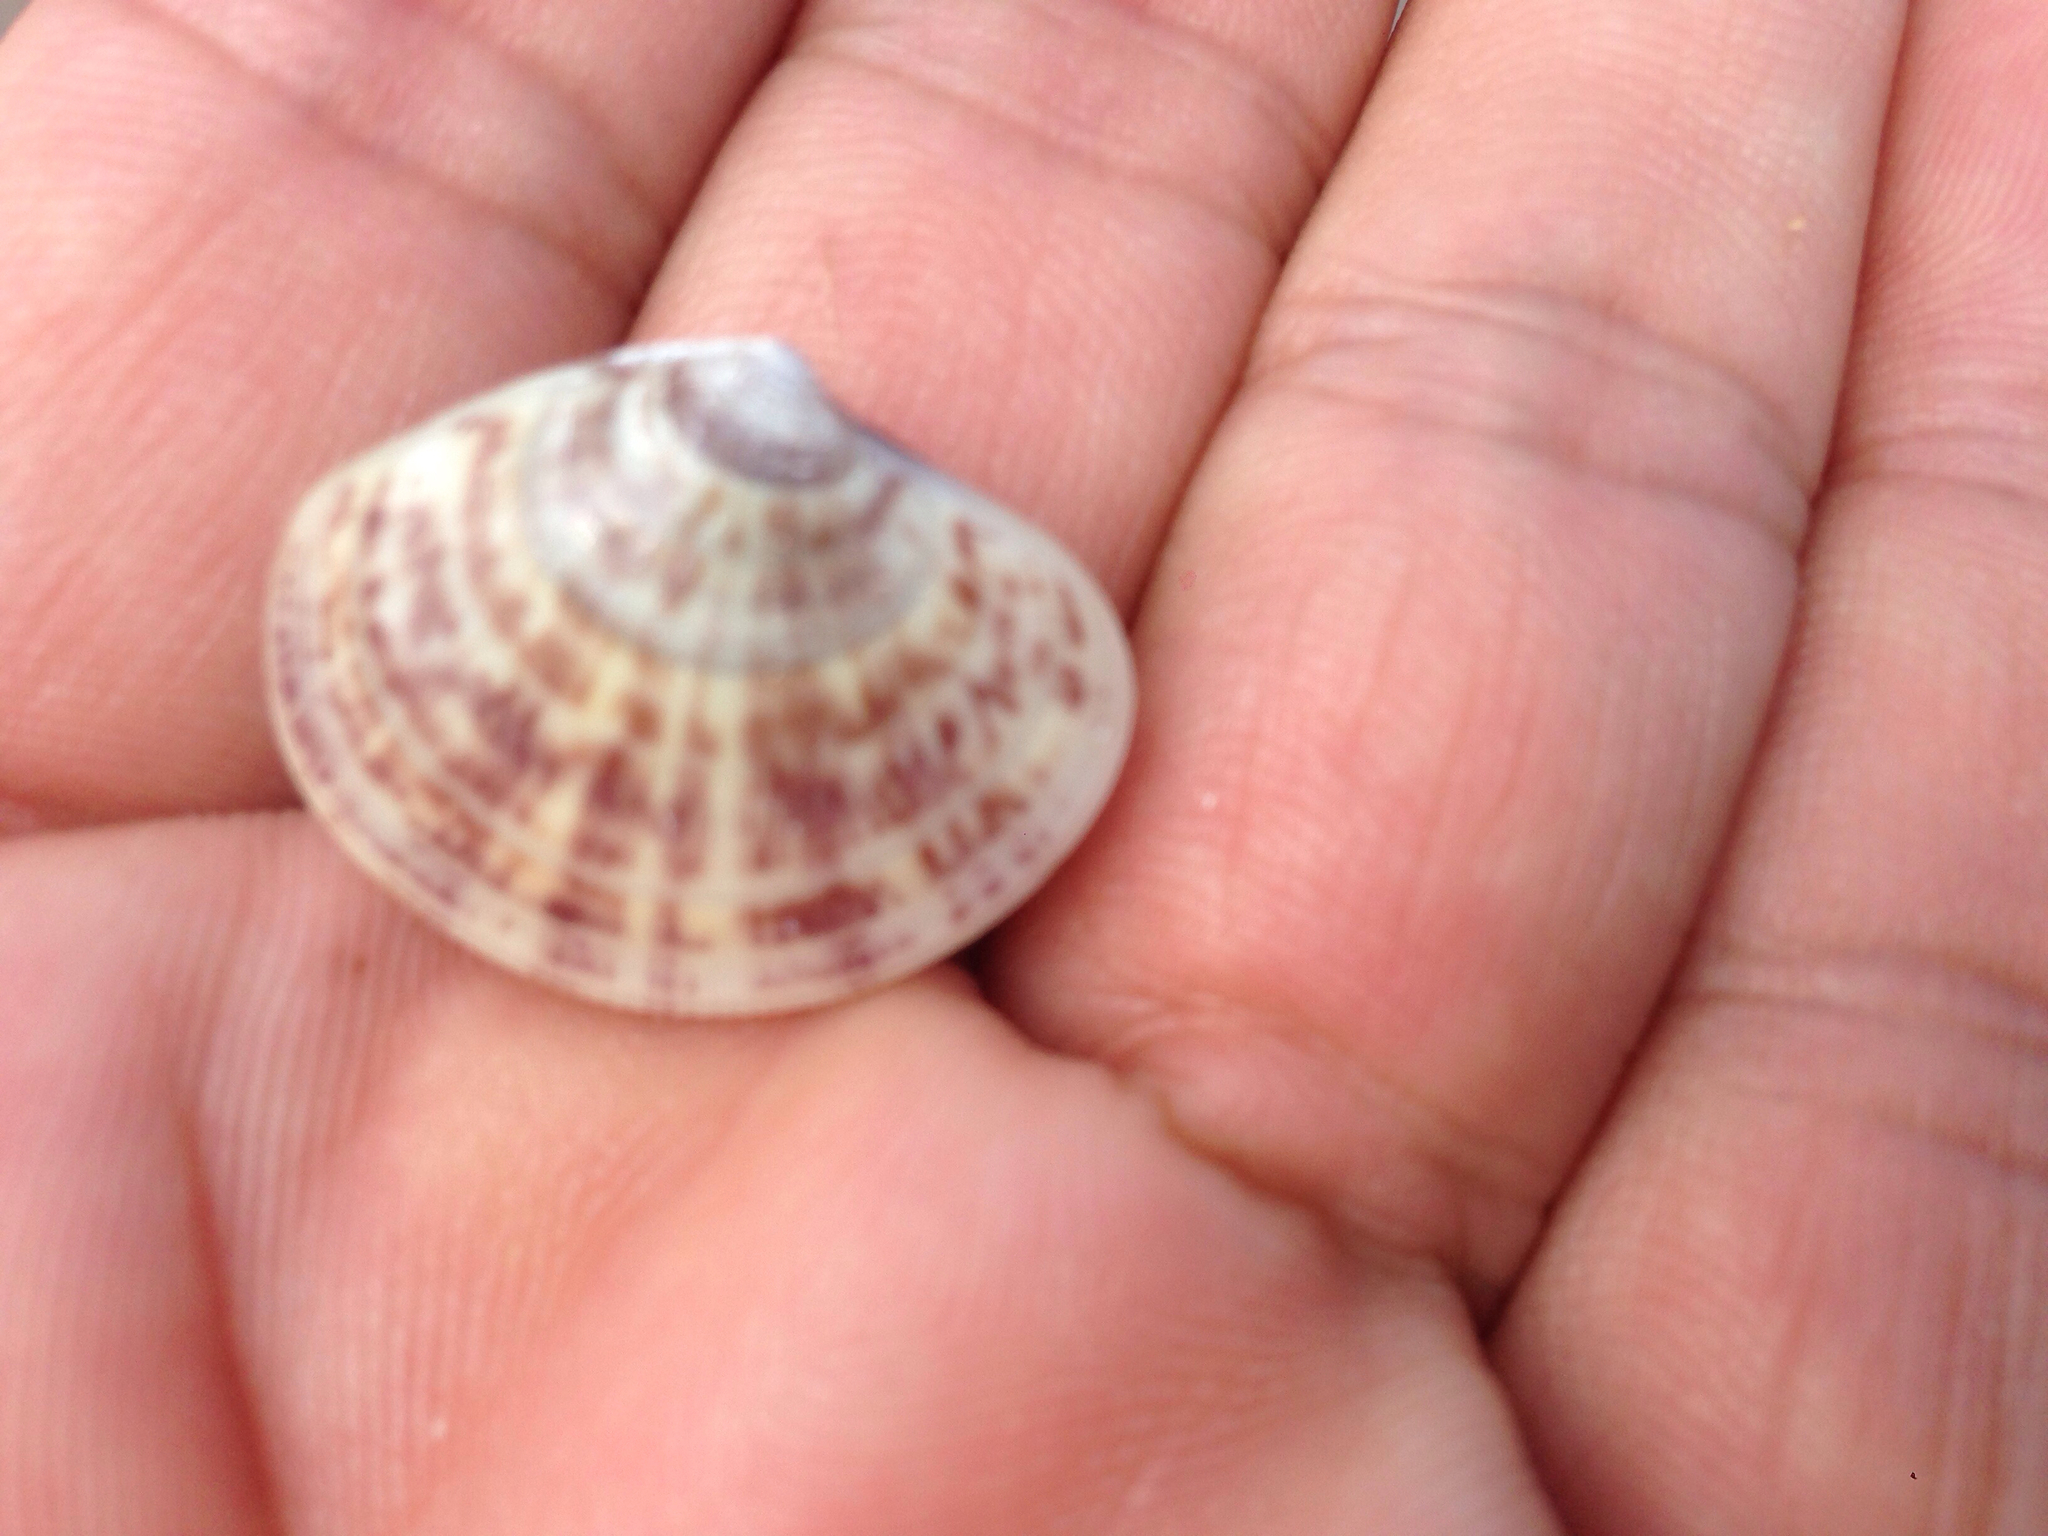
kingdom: Animalia
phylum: Mollusca
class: Bivalvia
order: Venerida
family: Veneridae
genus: Sunetta
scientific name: Sunetta sunettina
